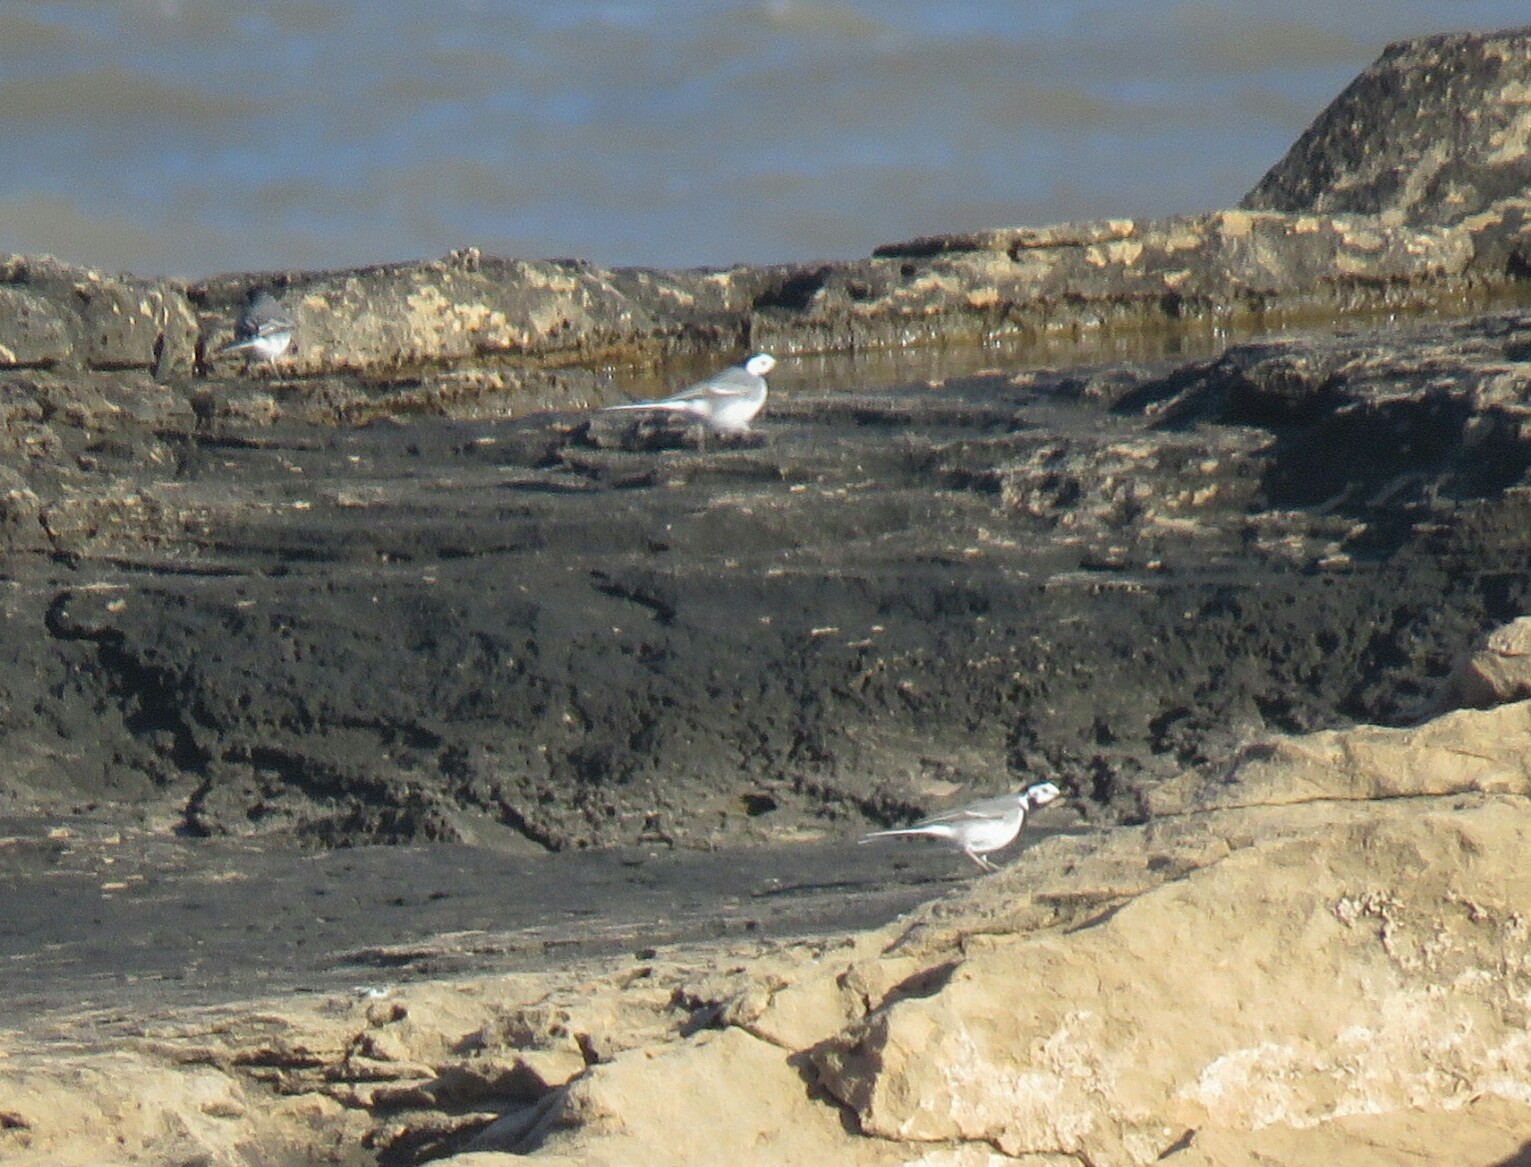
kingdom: Animalia
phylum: Chordata
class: Aves
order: Passeriformes
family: Motacillidae
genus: Motacilla
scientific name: Motacilla alba
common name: White wagtail
